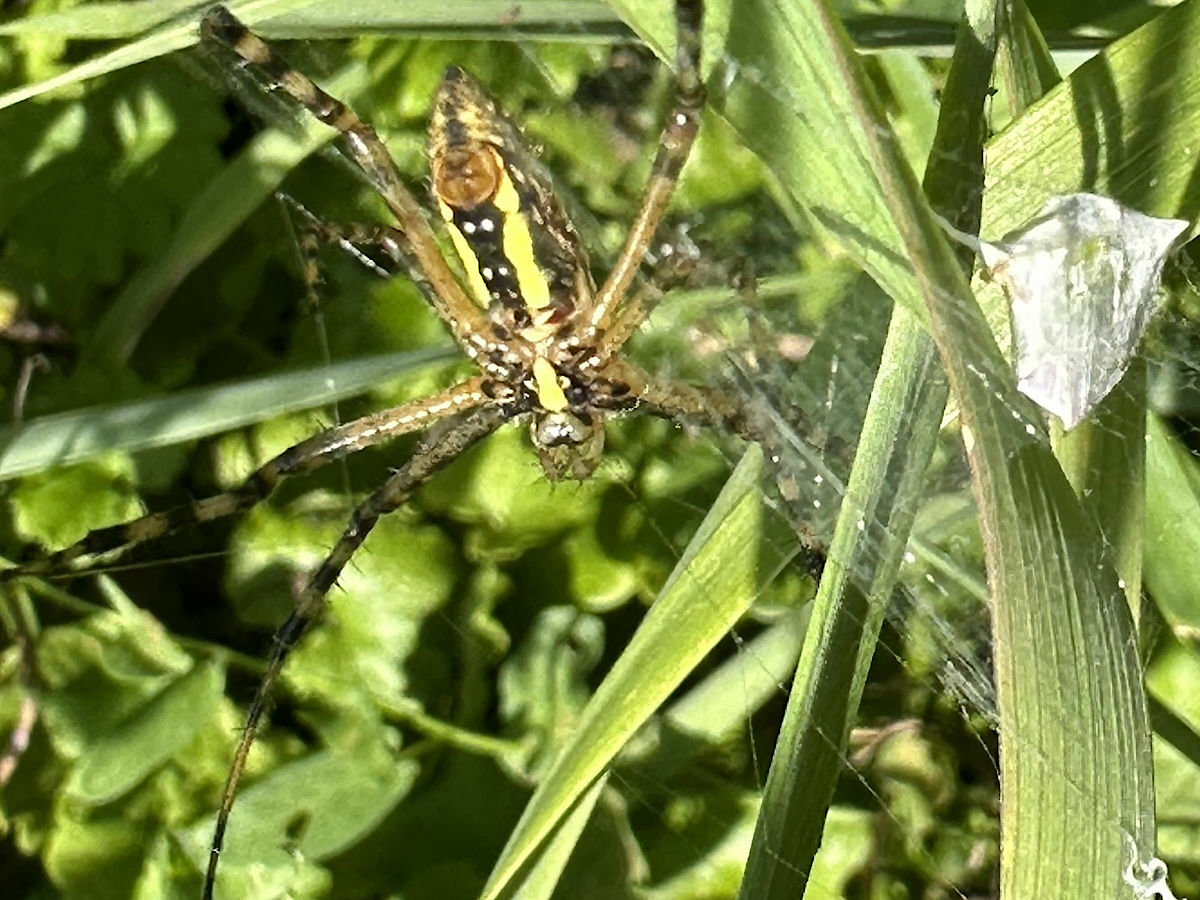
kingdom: Animalia
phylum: Arthropoda
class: Arachnida
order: Araneae
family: Araneidae
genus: Argiope
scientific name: Argiope trifasciata
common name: Banded garden spider
